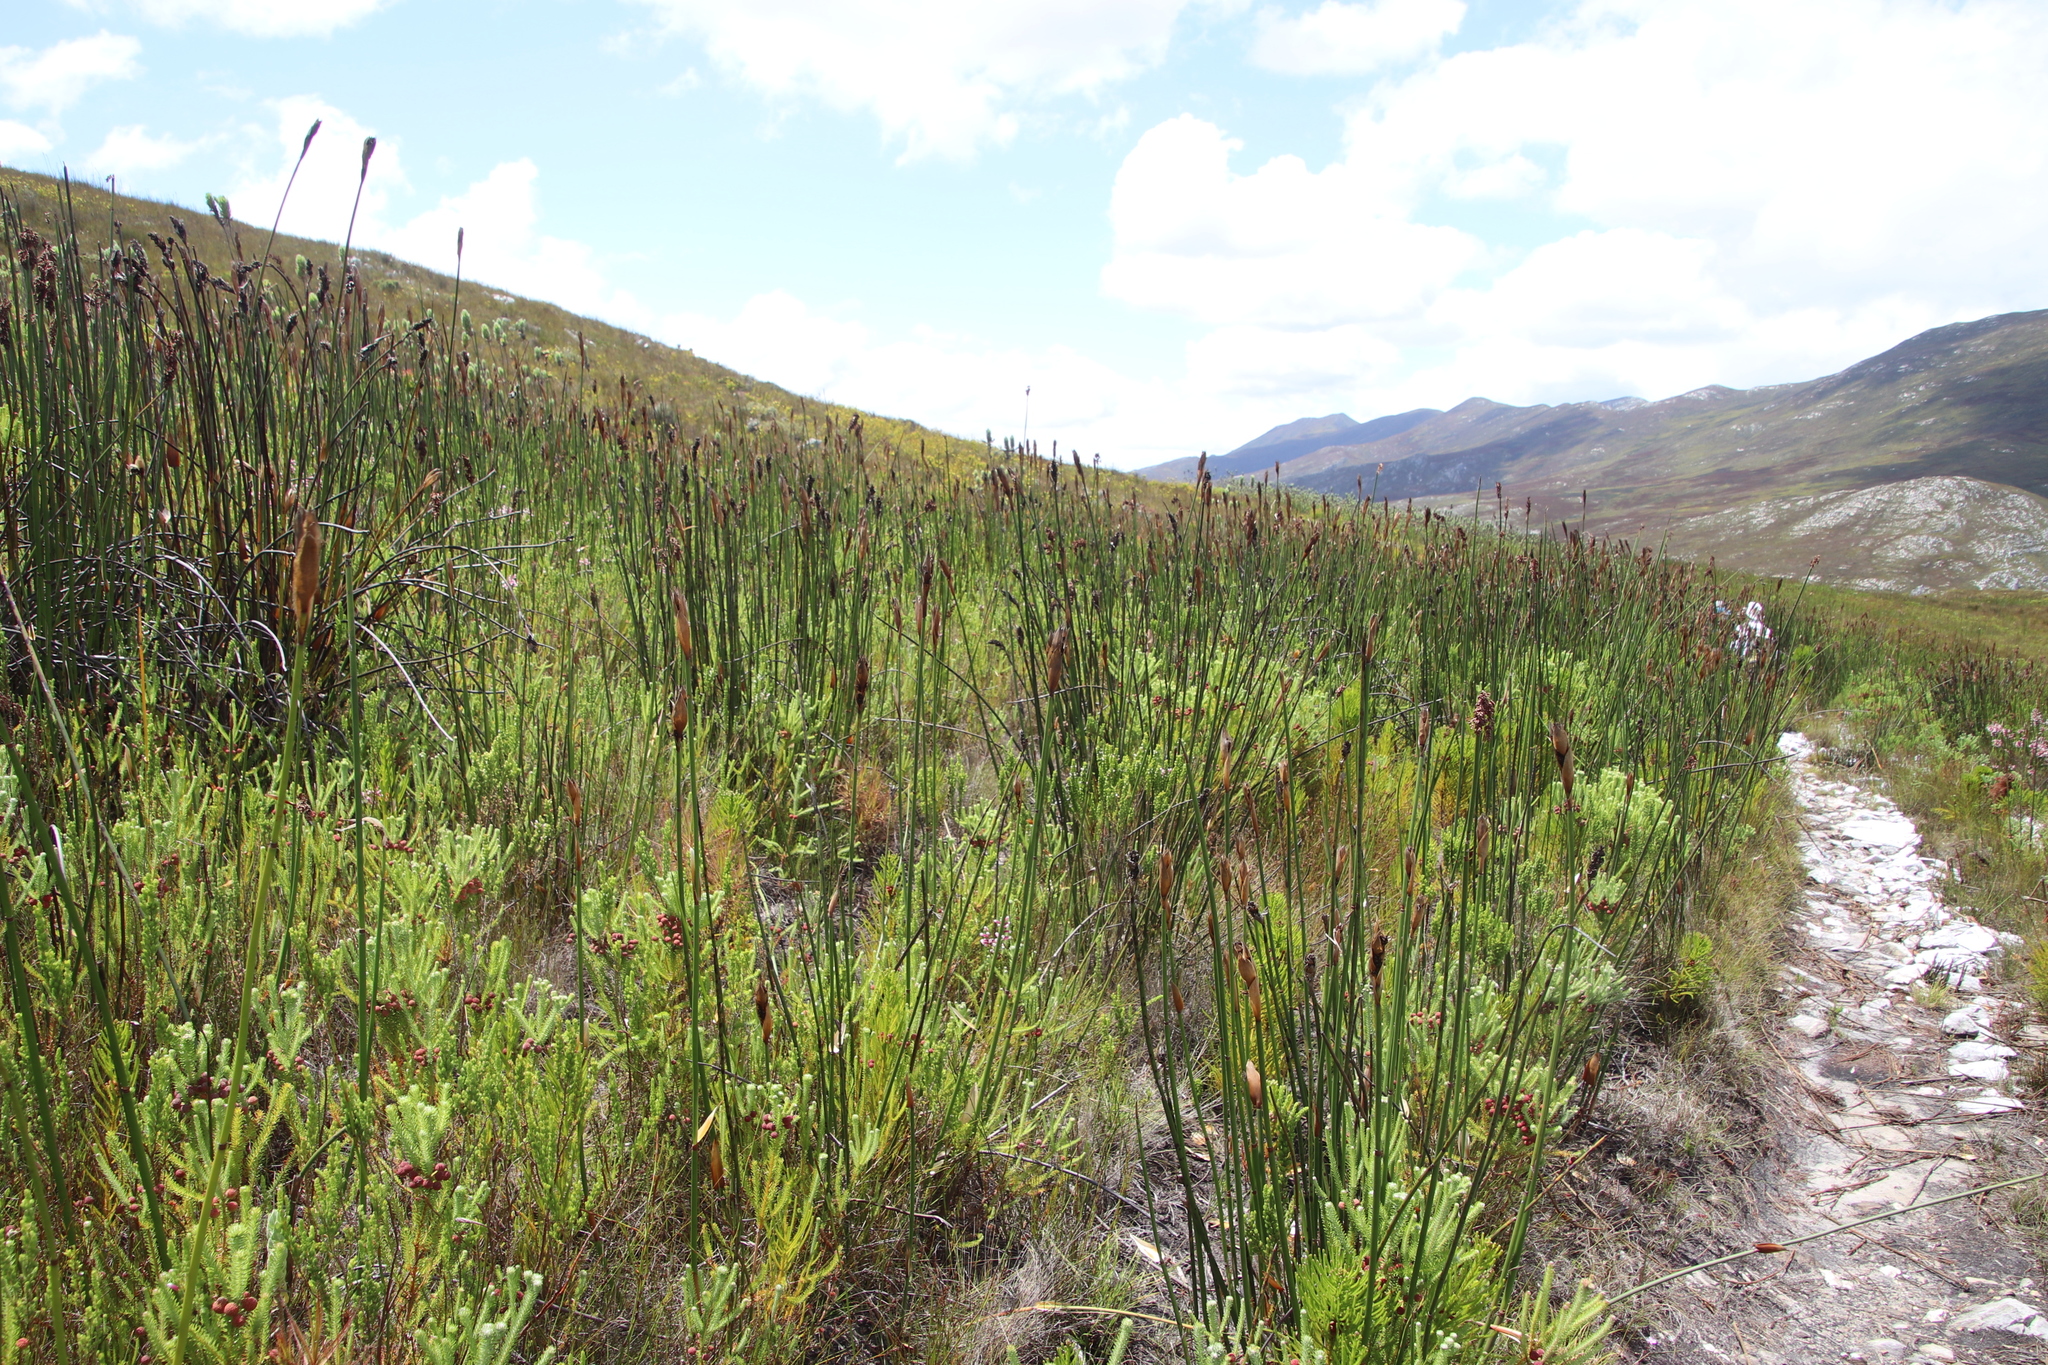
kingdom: Plantae
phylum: Tracheophyta
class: Magnoliopsida
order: Bruniales
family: Bruniaceae
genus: Berzelia
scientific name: Berzelia squarrosa
